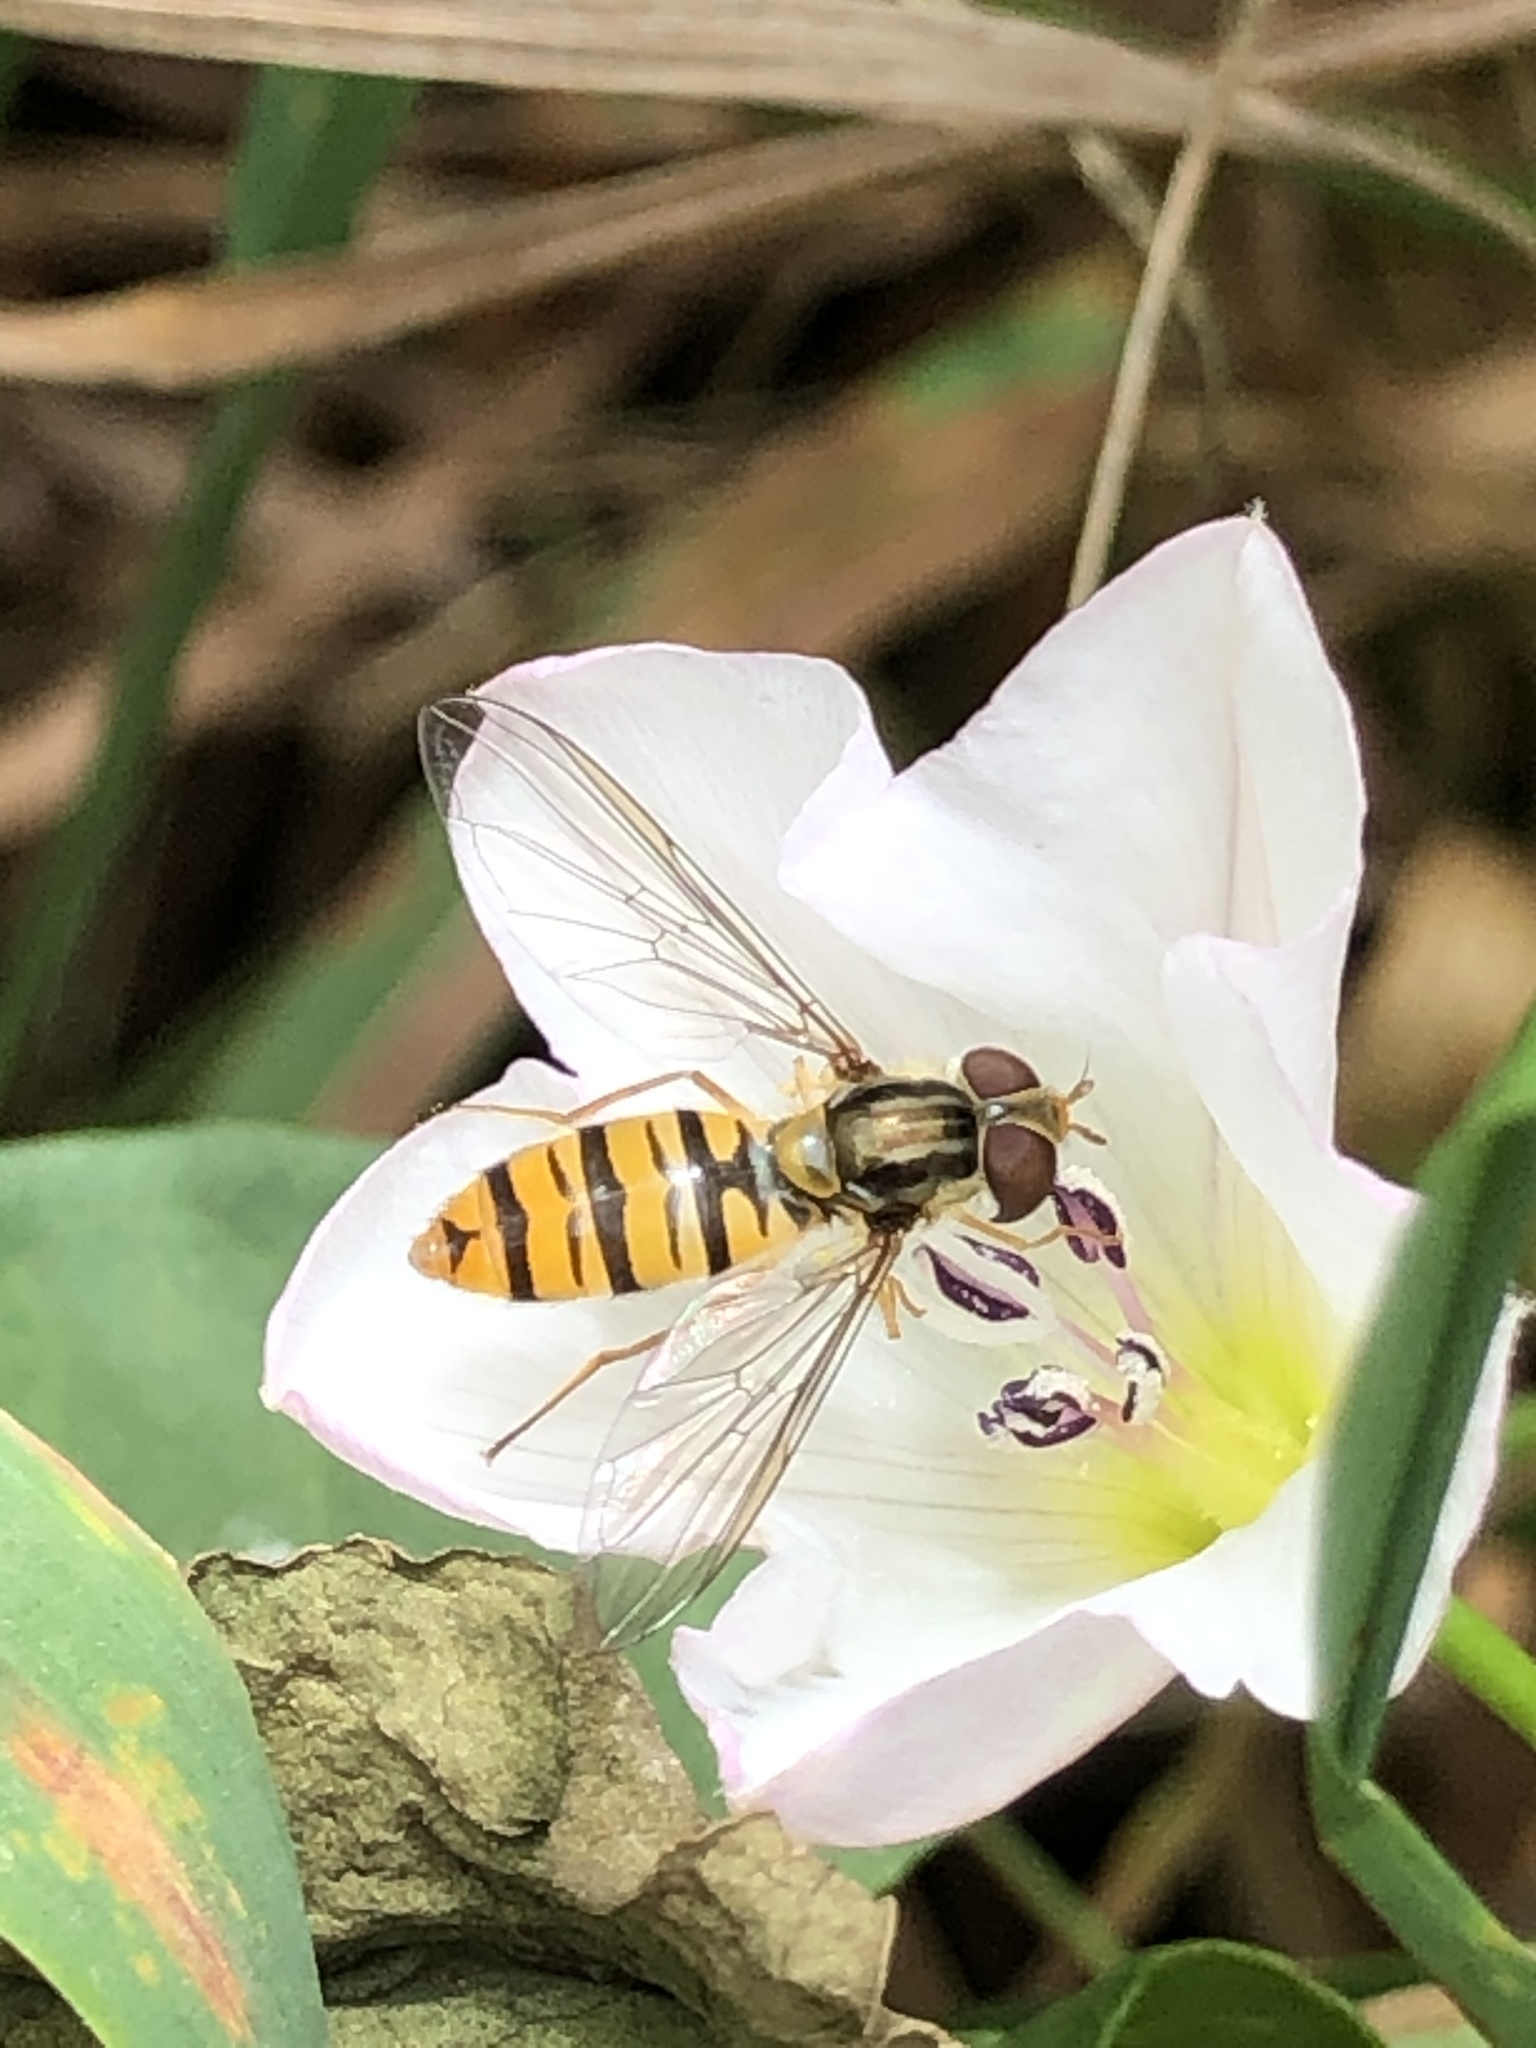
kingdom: Animalia
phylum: Arthropoda
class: Insecta
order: Diptera
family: Syrphidae
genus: Episyrphus
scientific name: Episyrphus balteatus
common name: Marmalade hoverfly
